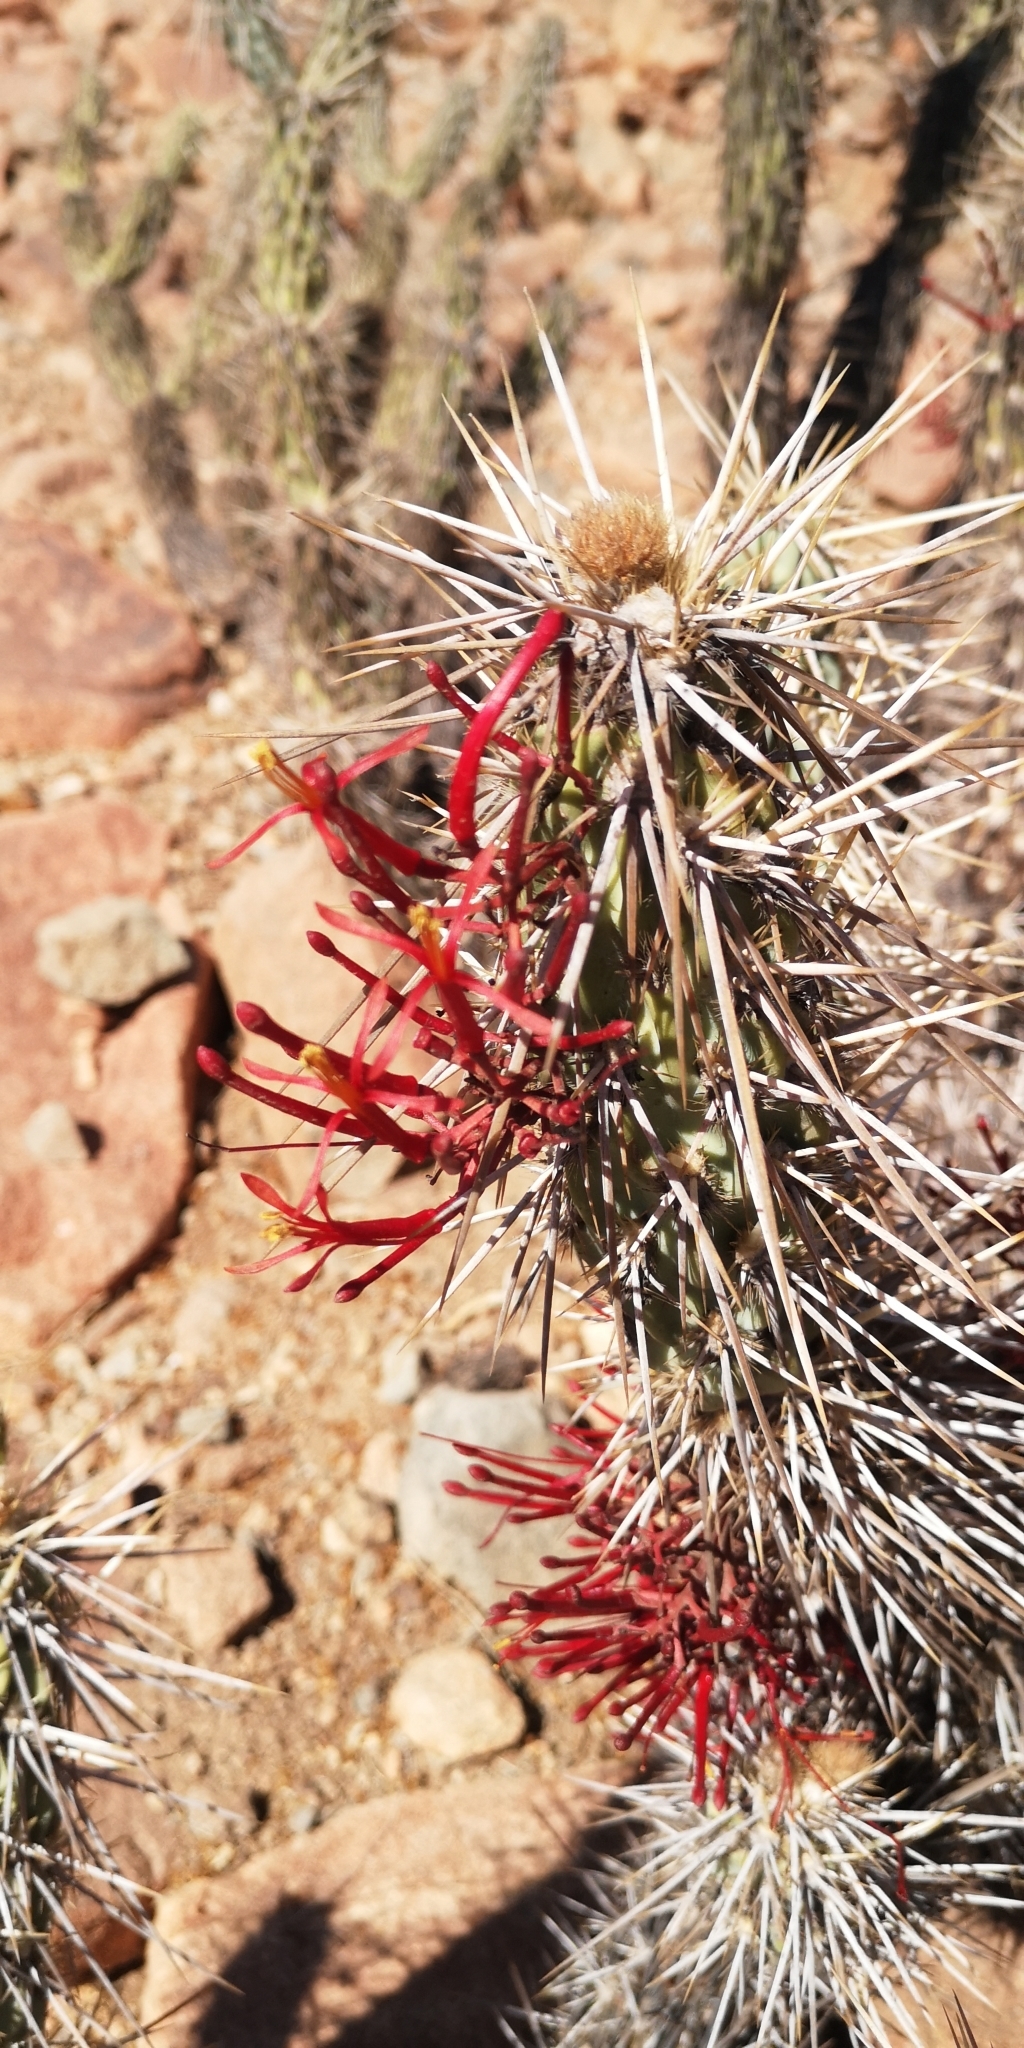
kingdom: Plantae
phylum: Tracheophyta
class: Magnoliopsida
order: Santalales
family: Loranthaceae
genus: Tristerix
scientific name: Tristerix aphyllus
